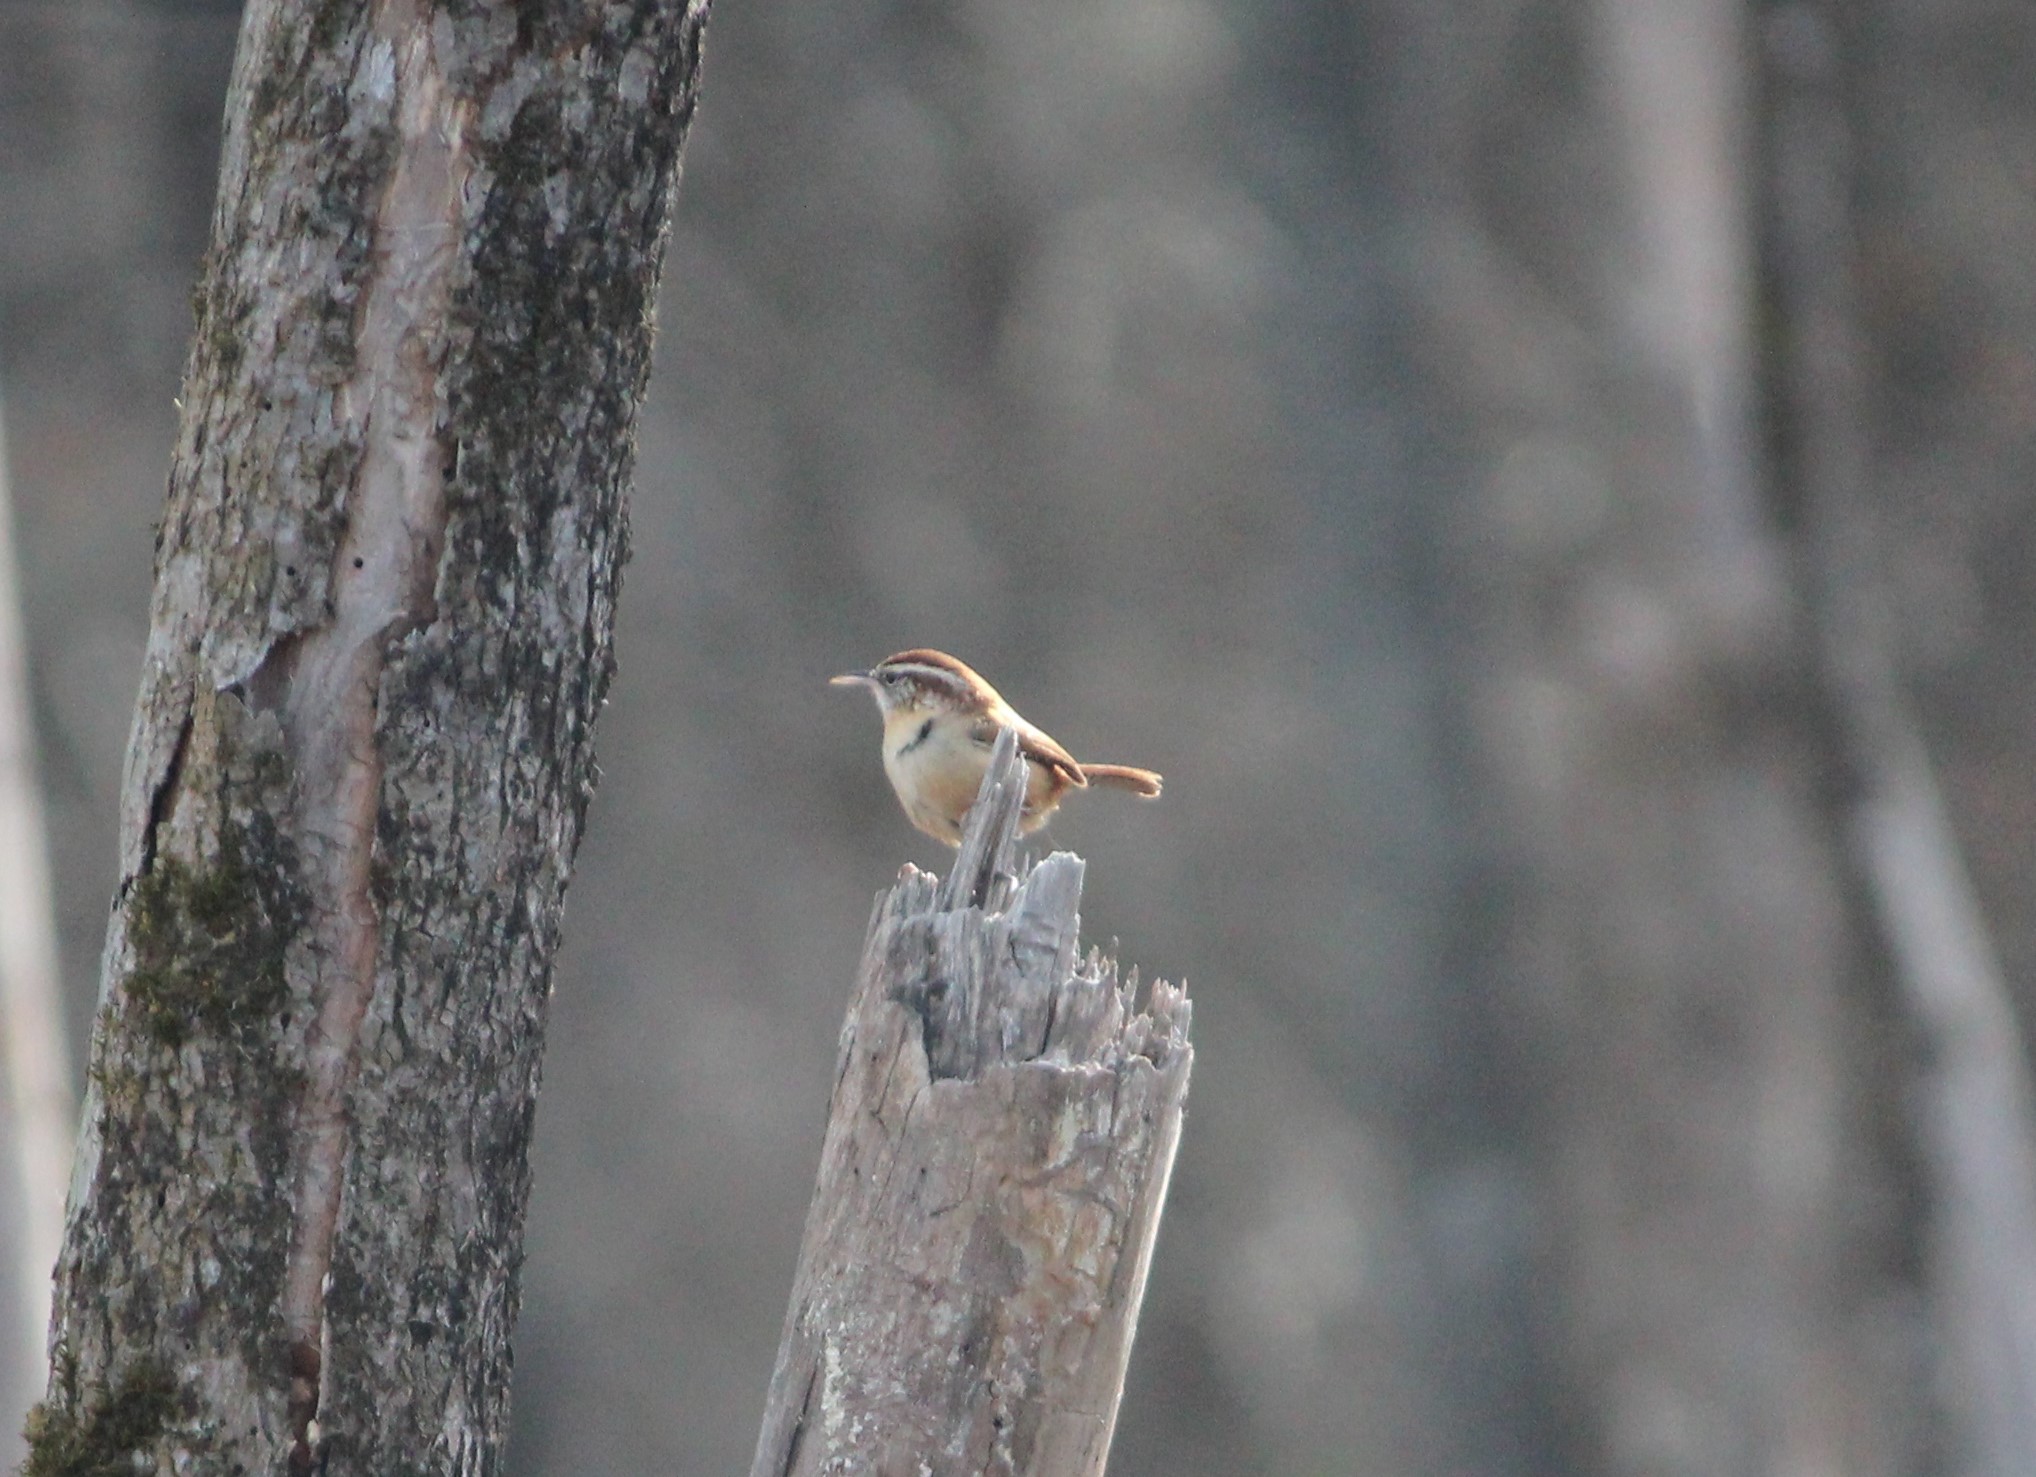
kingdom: Animalia
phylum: Chordata
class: Aves
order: Passeriformes
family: Troglodytidae
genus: Thryothorus
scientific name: Thryothorus ludovicianus
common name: Carolina wren
